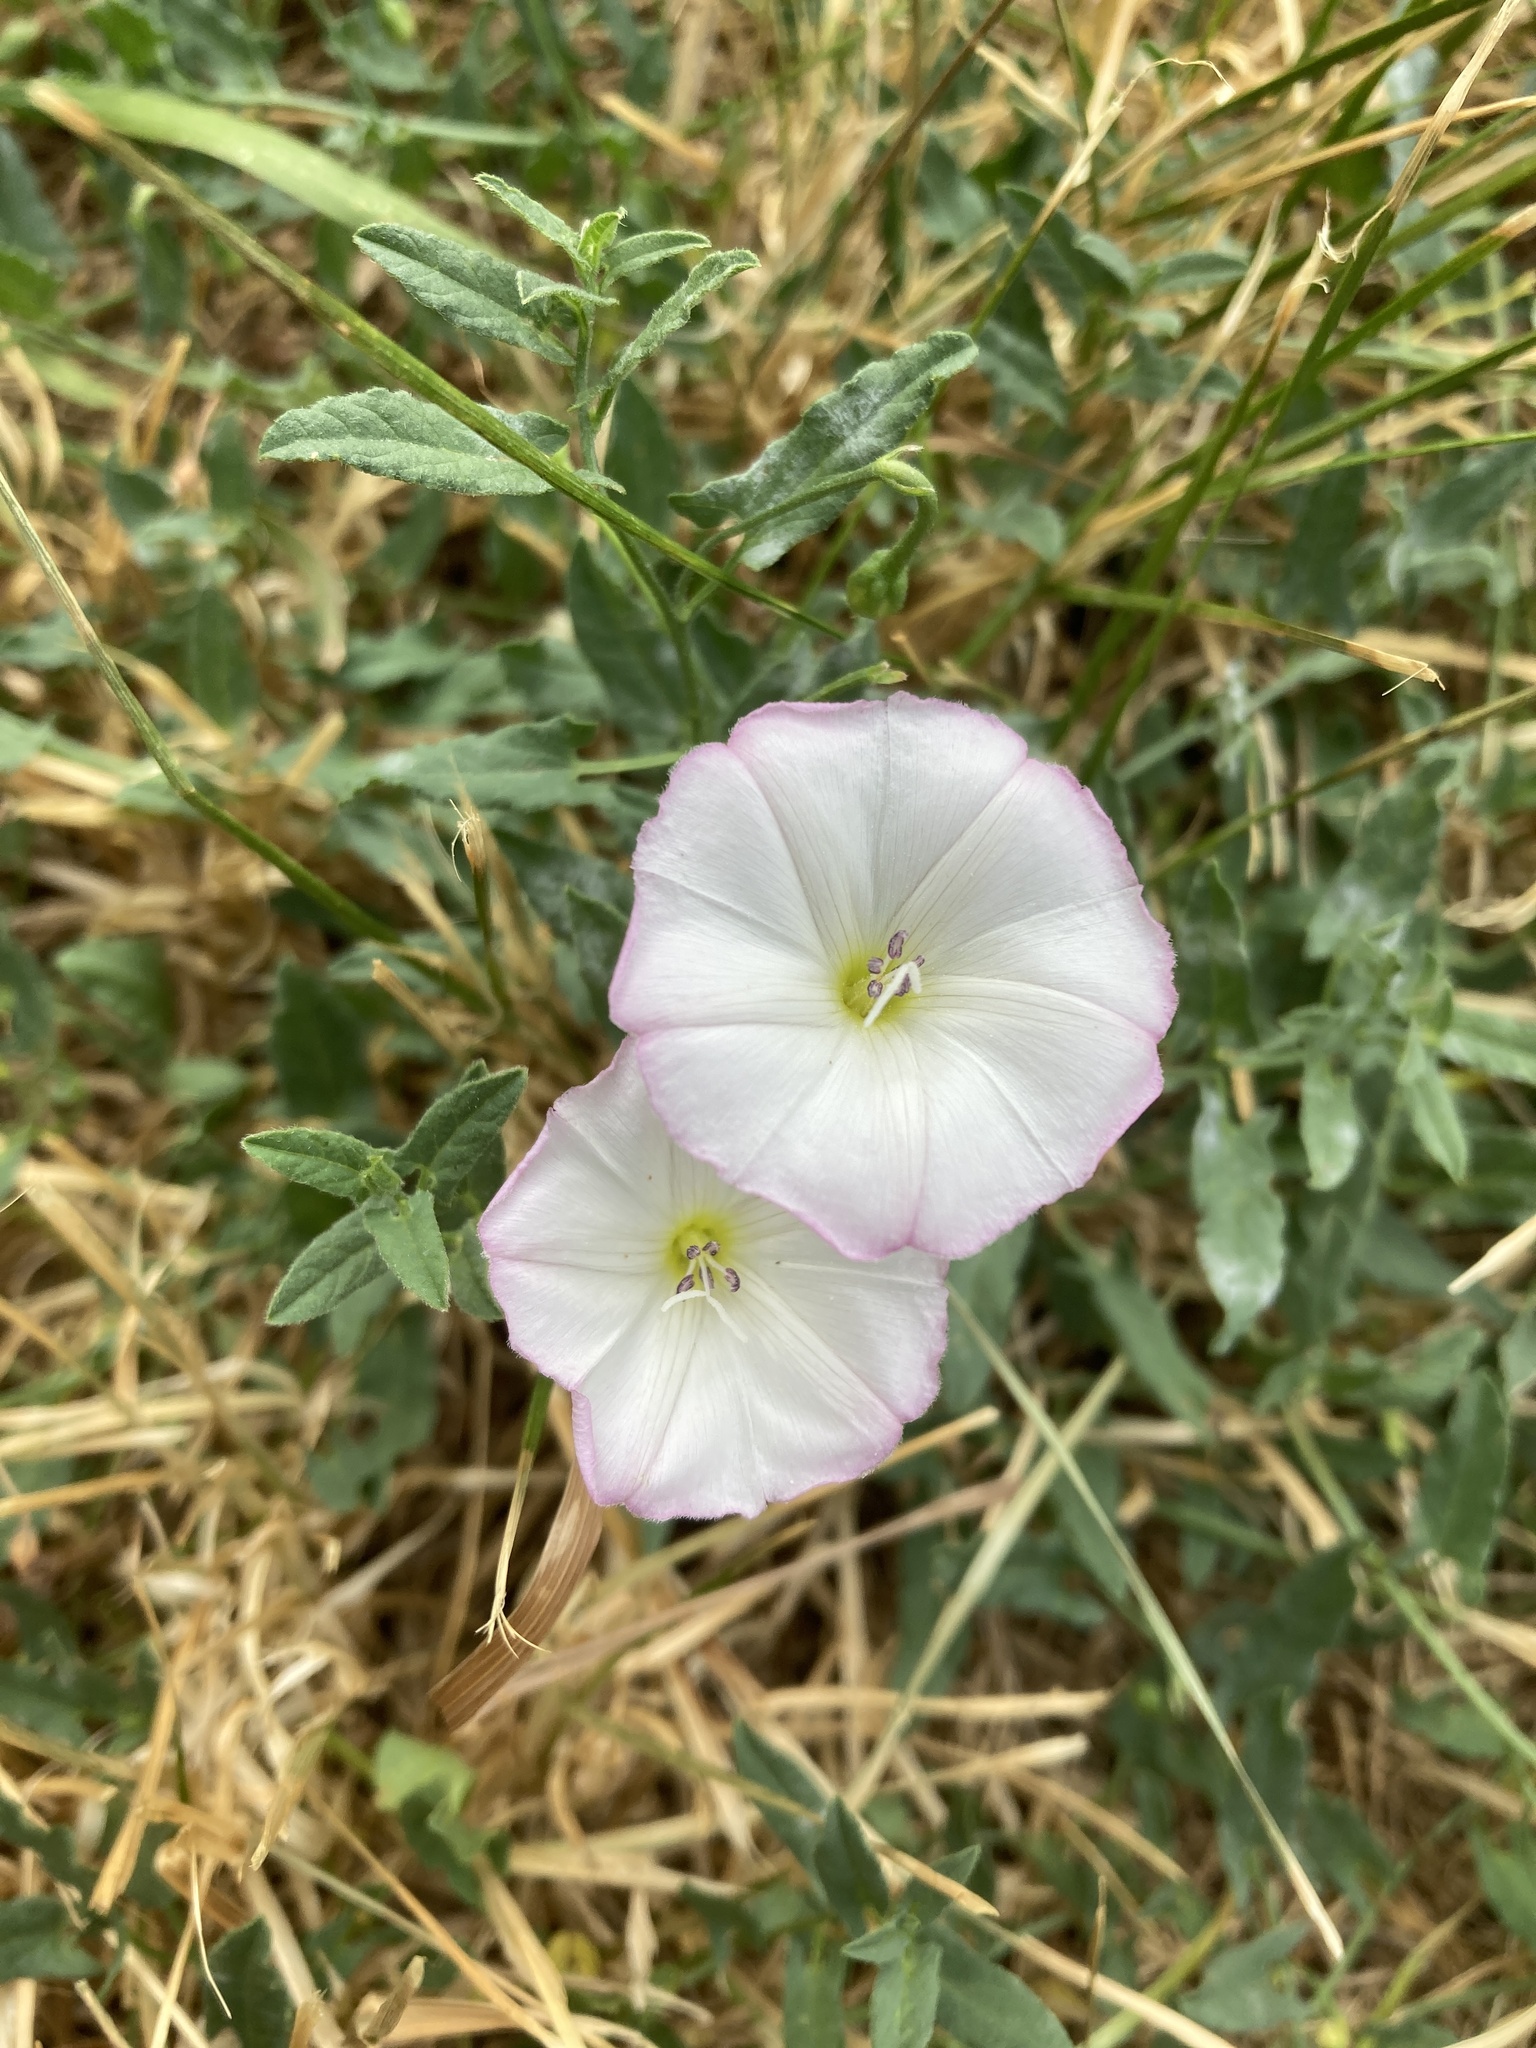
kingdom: Plantae
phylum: Tracheophyta
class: Magnoliopsida
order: Solanales
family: Convolvulaceae
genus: Convolvulus
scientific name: Convolvulus arvensis
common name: Field bindweed
